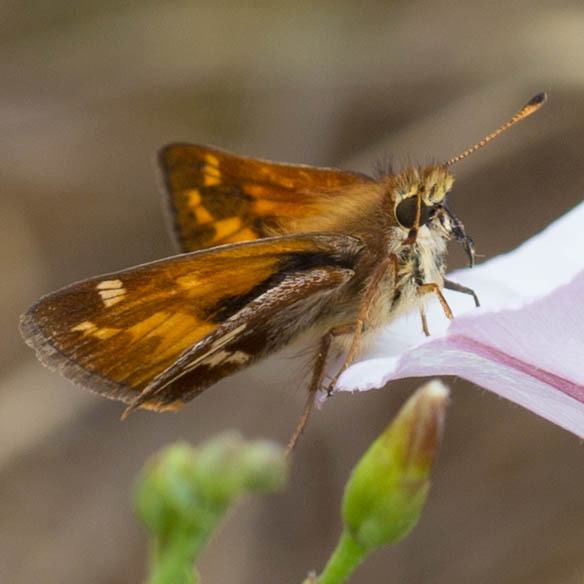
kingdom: Animalia
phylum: Arthropoda
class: Insecta
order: Lepidoptera
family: Hesperiidae
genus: Ochlodes
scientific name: Ochlodes sylvanoides
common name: Woodland skipper
